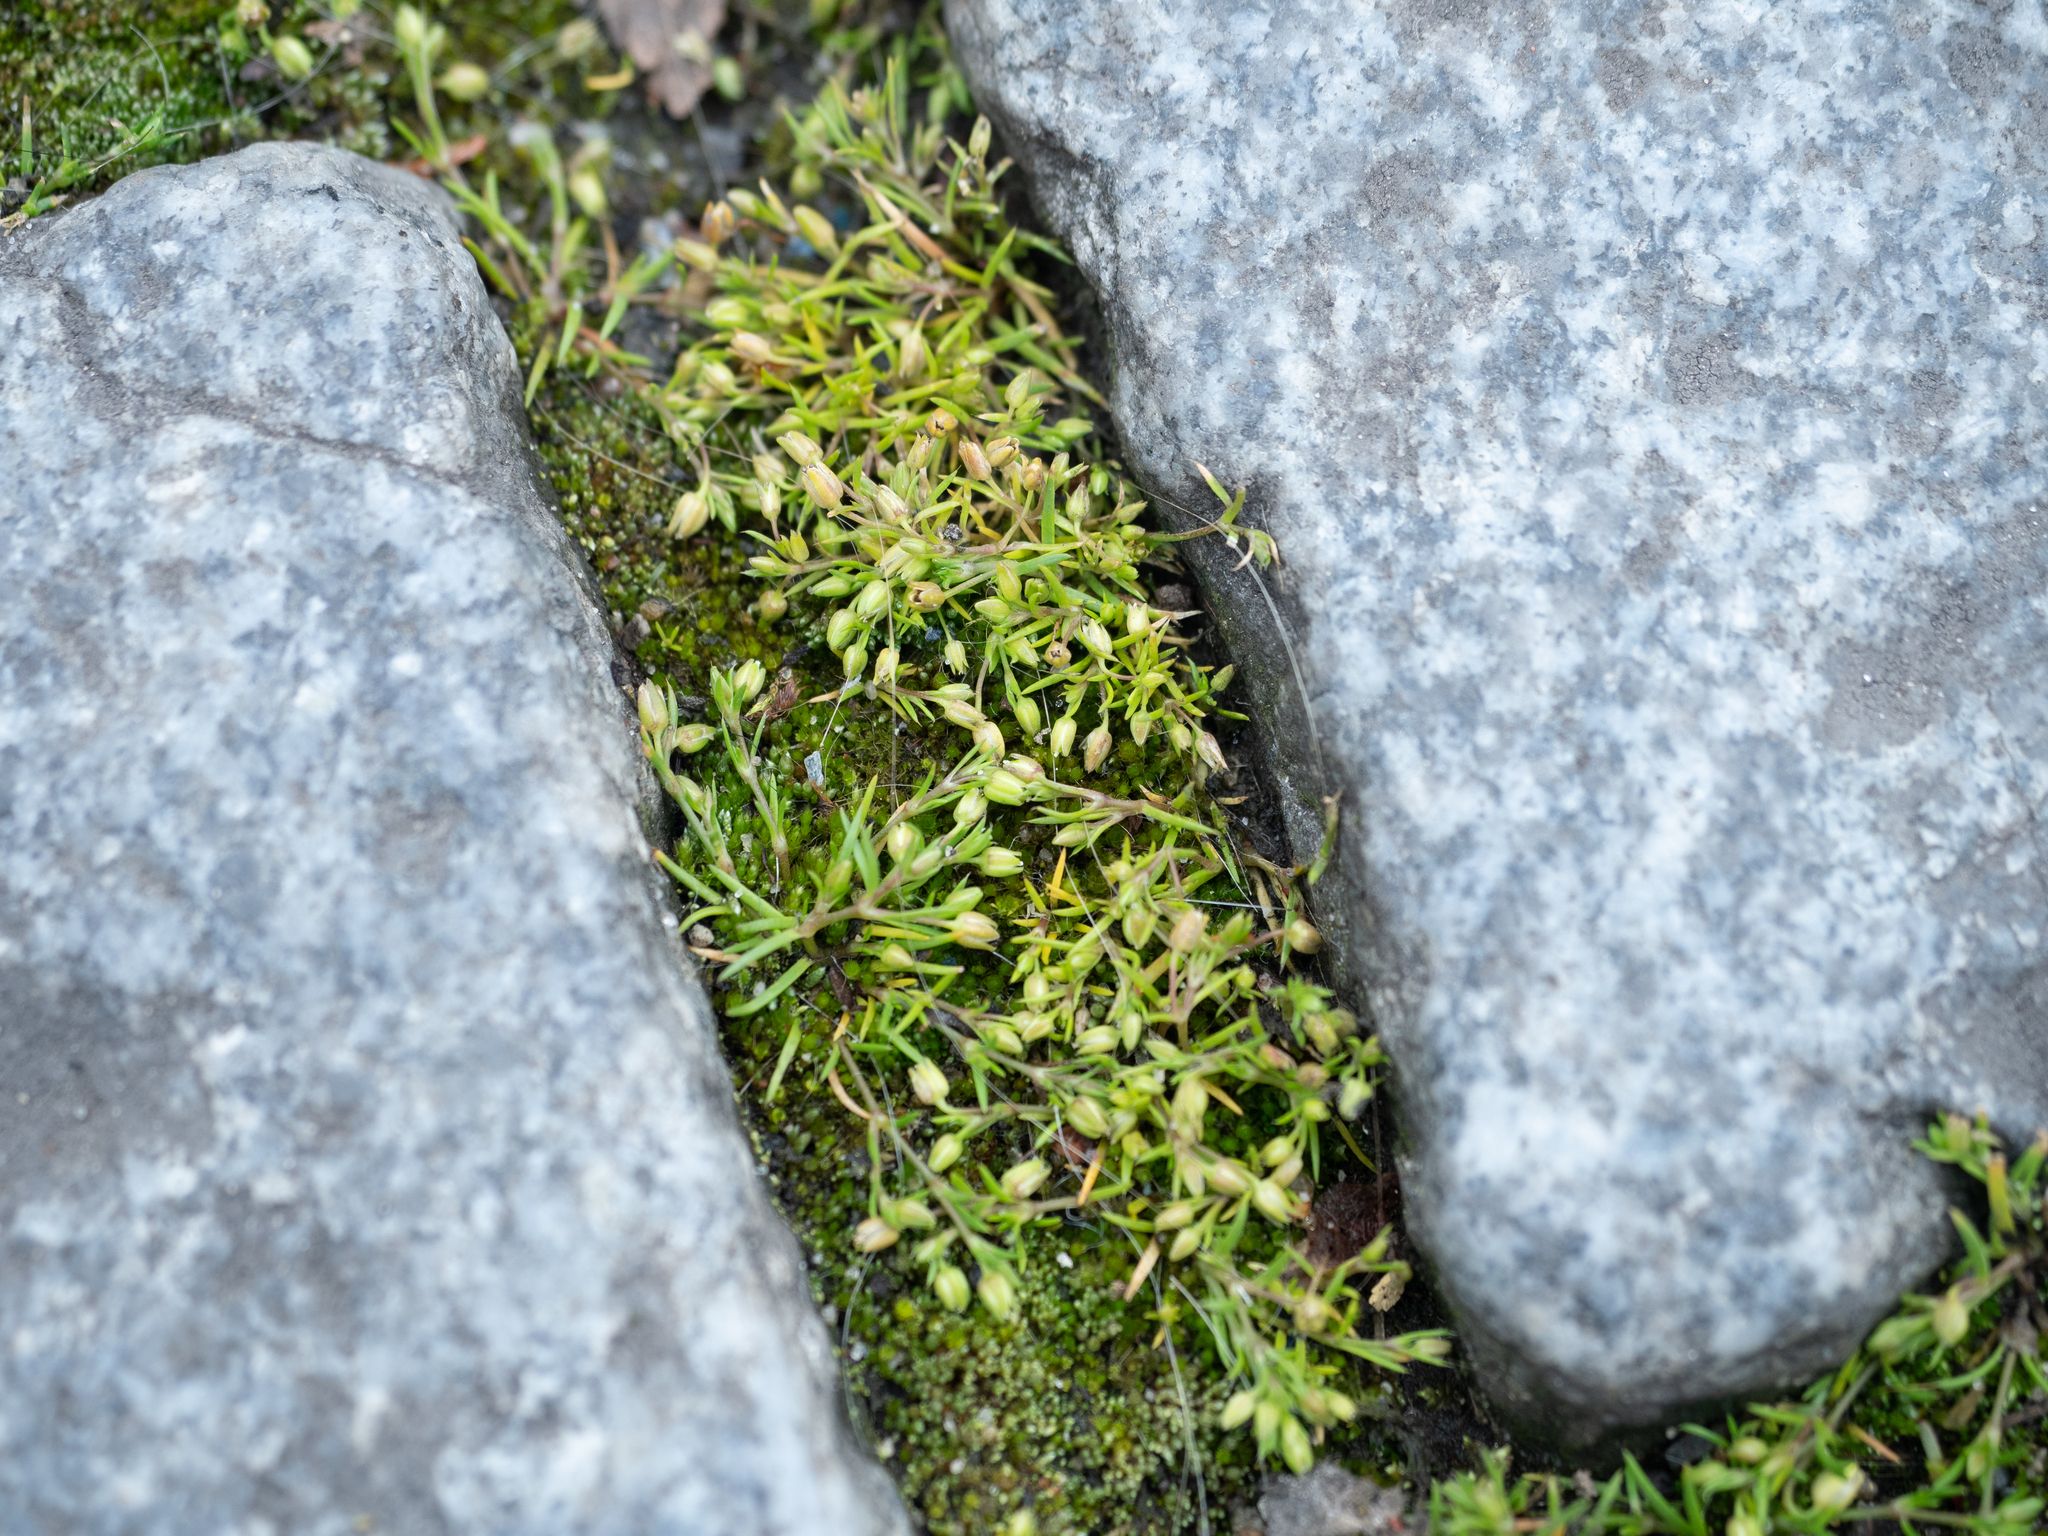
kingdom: Plantae
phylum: Tracheophyta
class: Magnoliopsida
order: Caryophyllales
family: Caryophyllaceae
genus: Sagina
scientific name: Sagina procumbens
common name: Procumbent pearlwort
